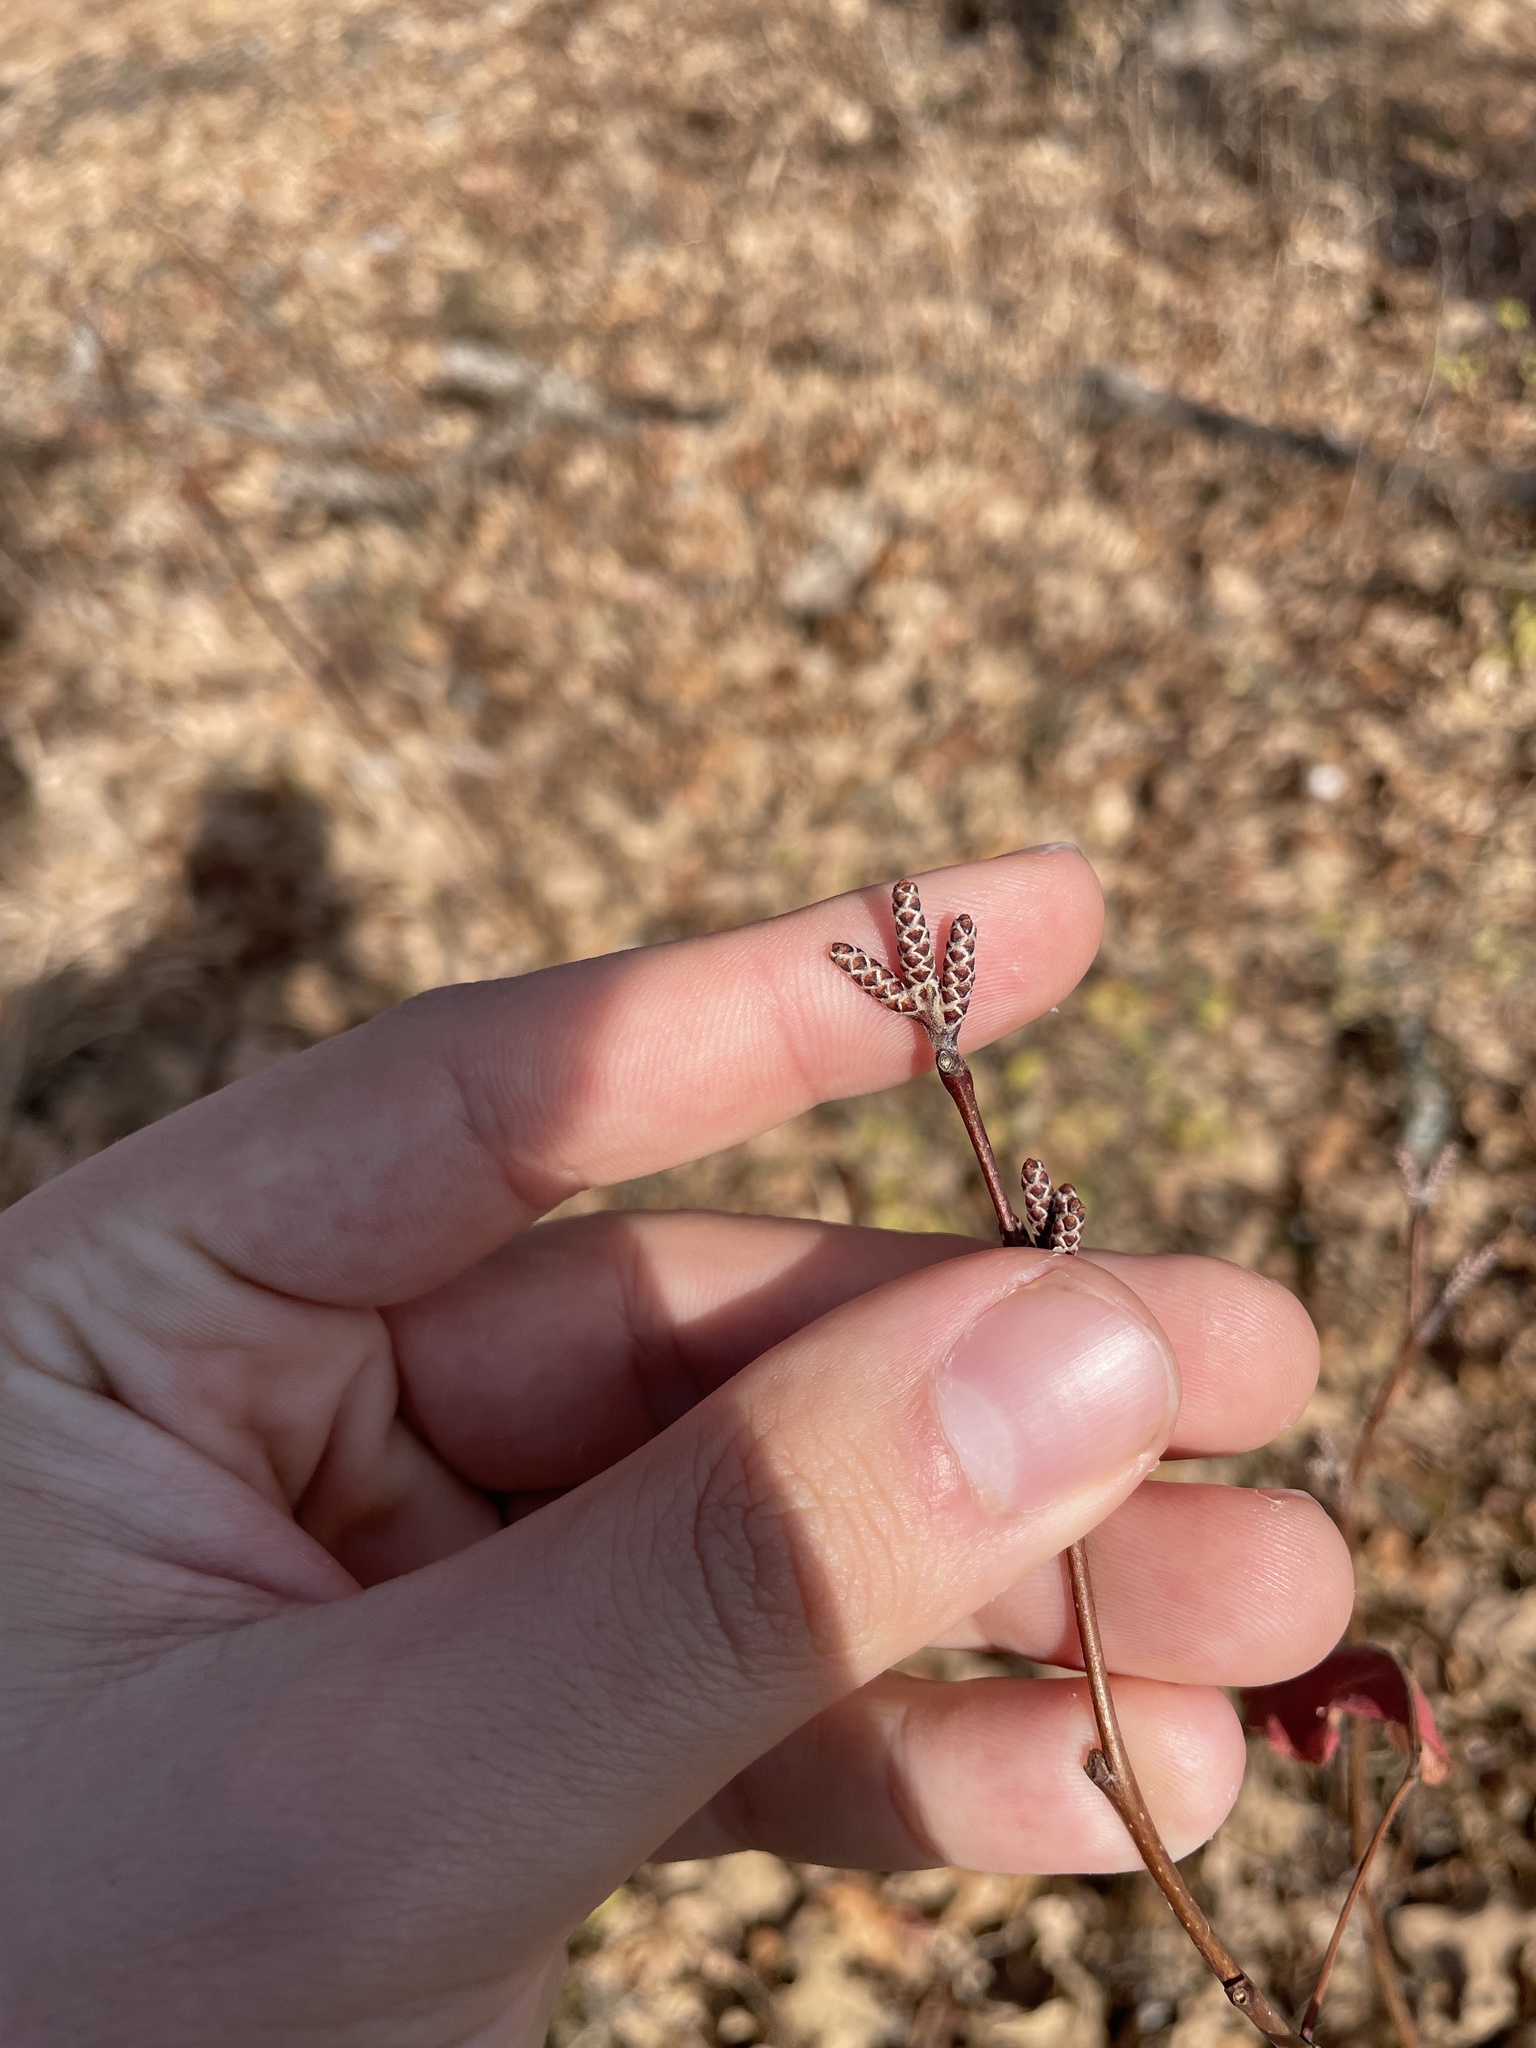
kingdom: Plantae
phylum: Tracheophyta
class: Magnoliopsida
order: Sapindales
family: Anacardiaceae
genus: Rhus
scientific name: Rhus aromatica
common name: Aromatic sumac
